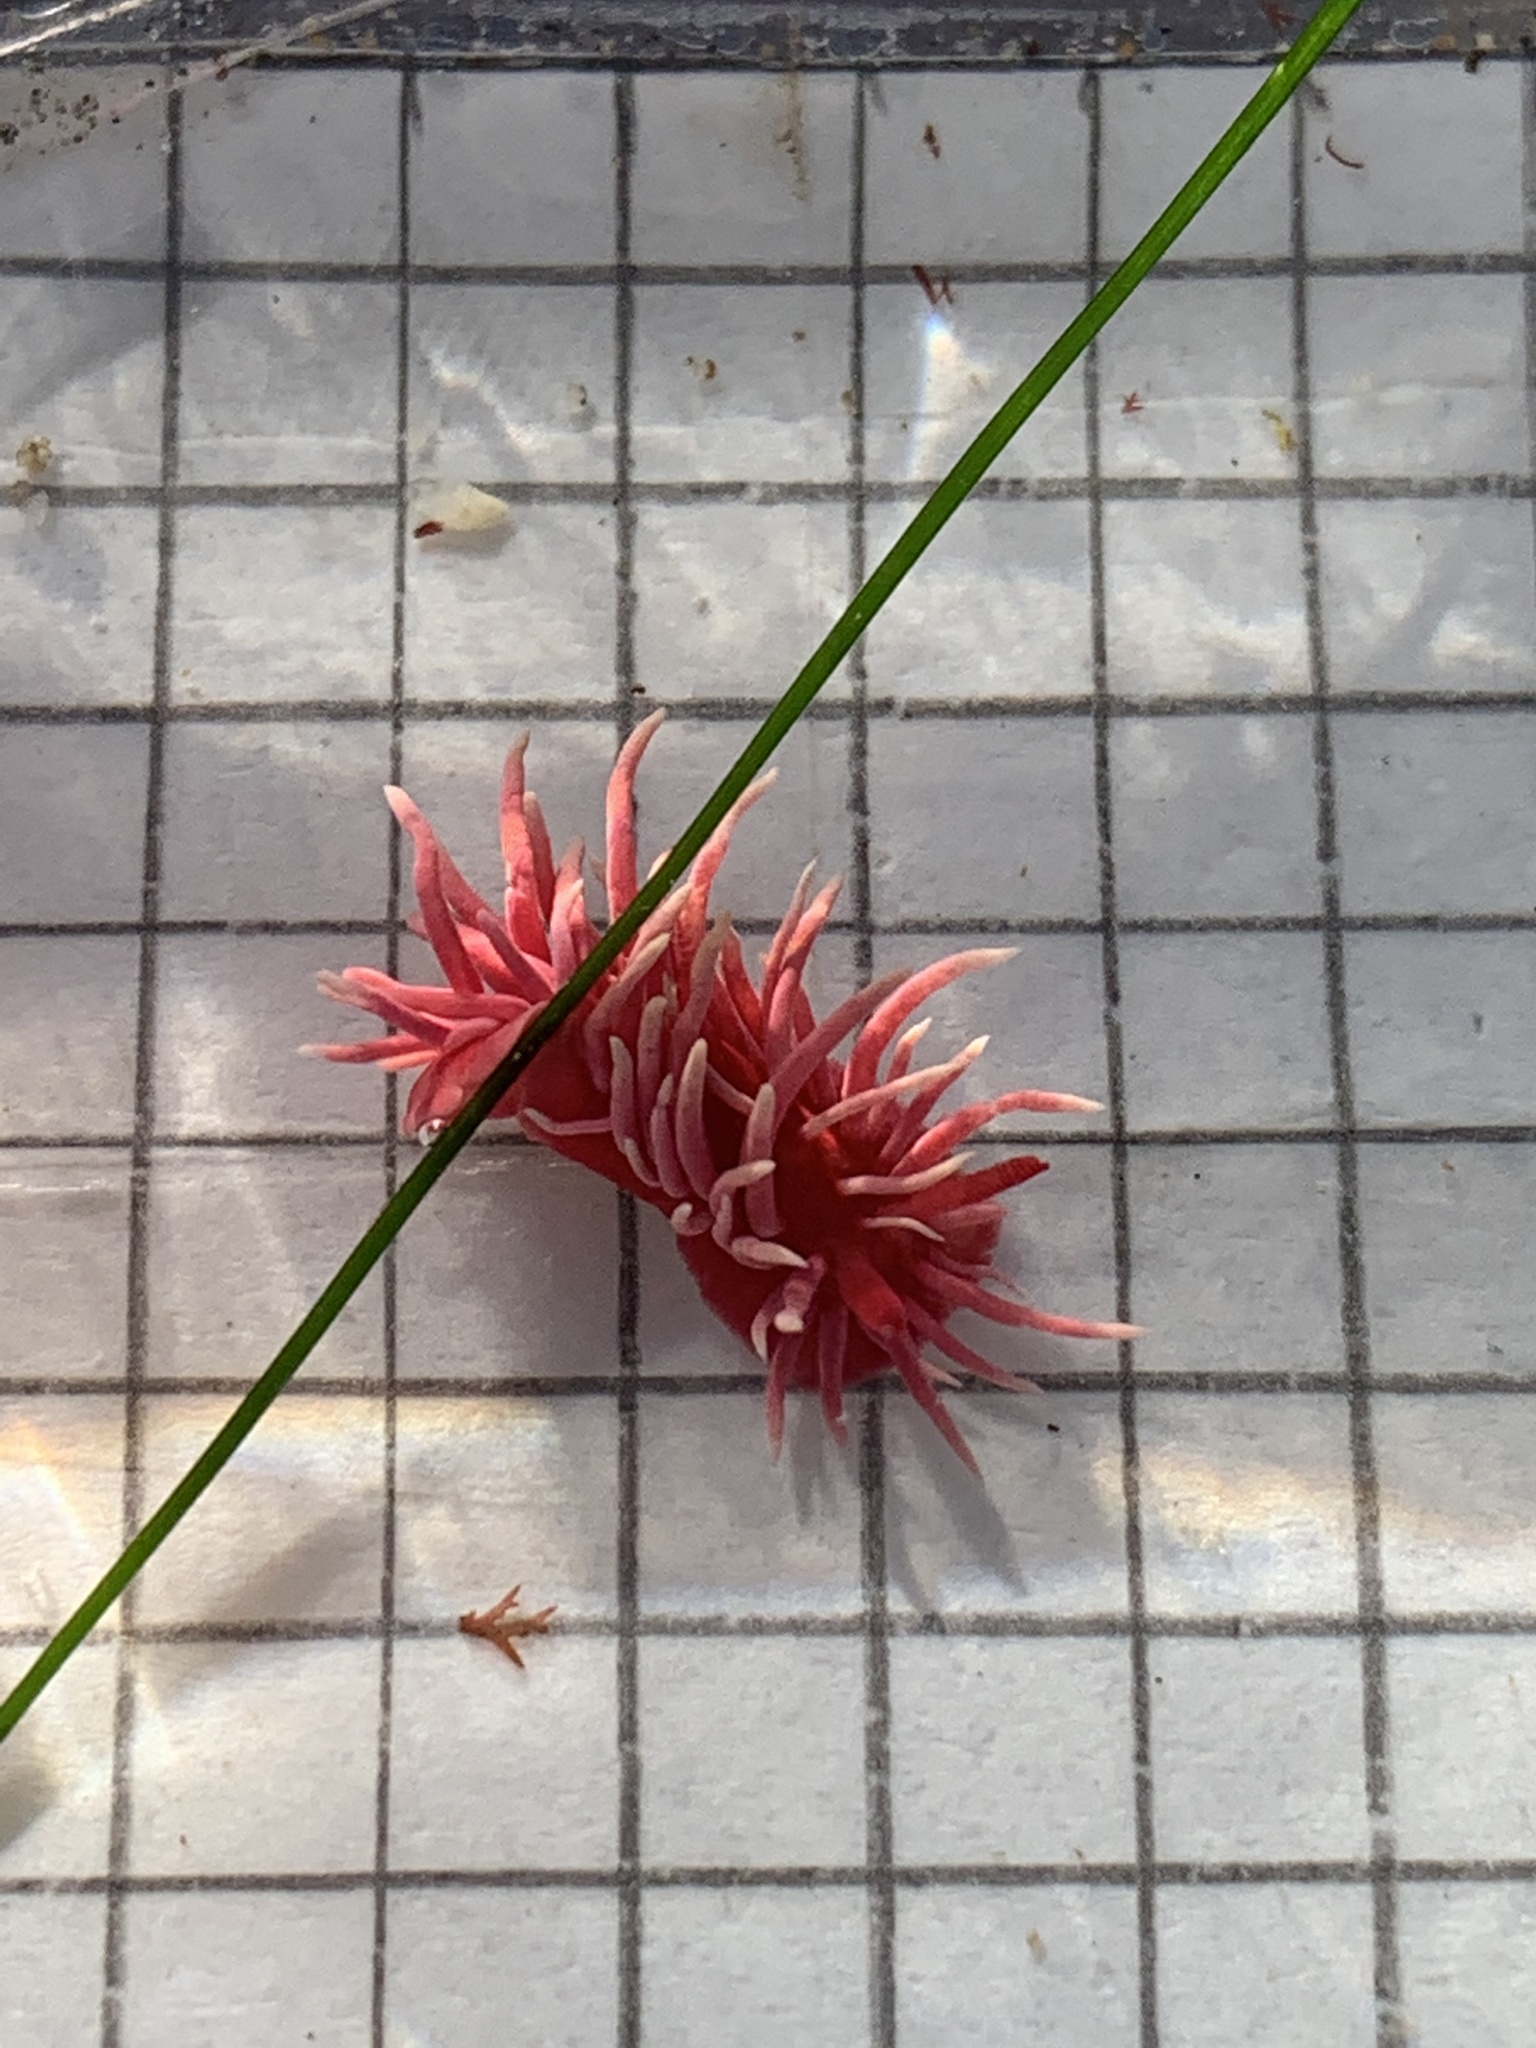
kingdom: Animalia
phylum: Mollusca
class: Gastropoda
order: Nudibranchia
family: Goniodorididae
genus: Okenia
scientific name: Okenia
